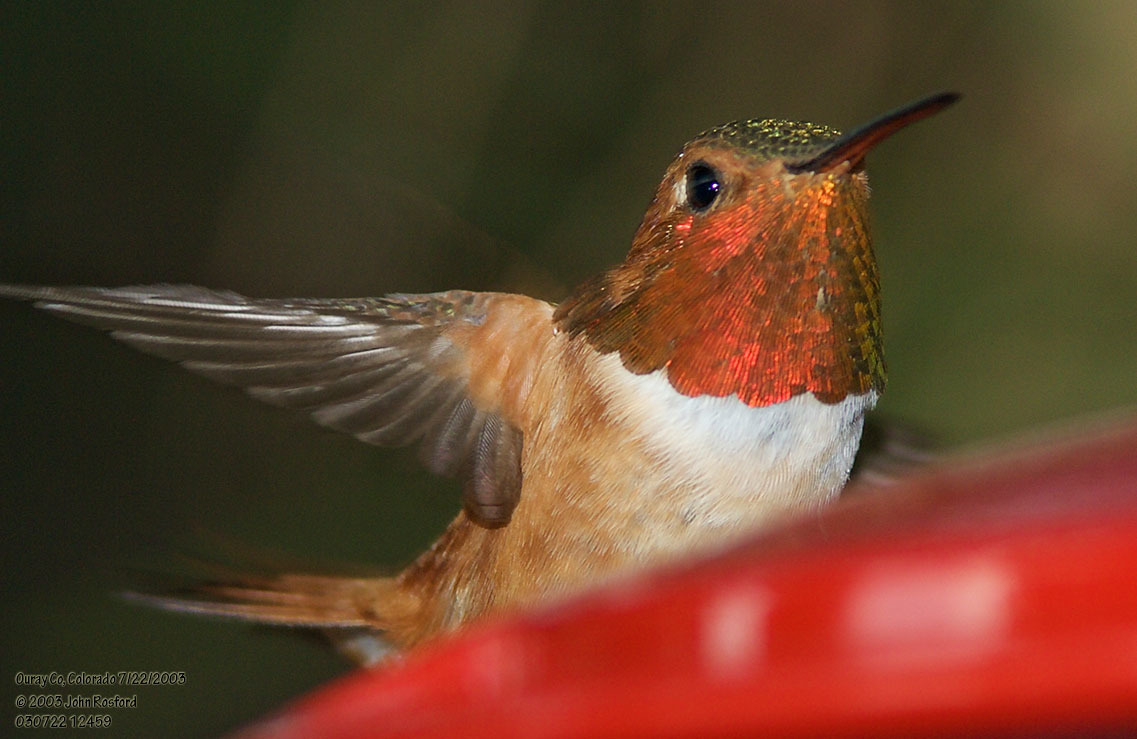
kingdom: Animalia
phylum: Chordata
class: Aves
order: Apodiformes
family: Trochilidae
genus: Selasphorus
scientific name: Selasphorus rufus
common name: Rufous hummingbird
